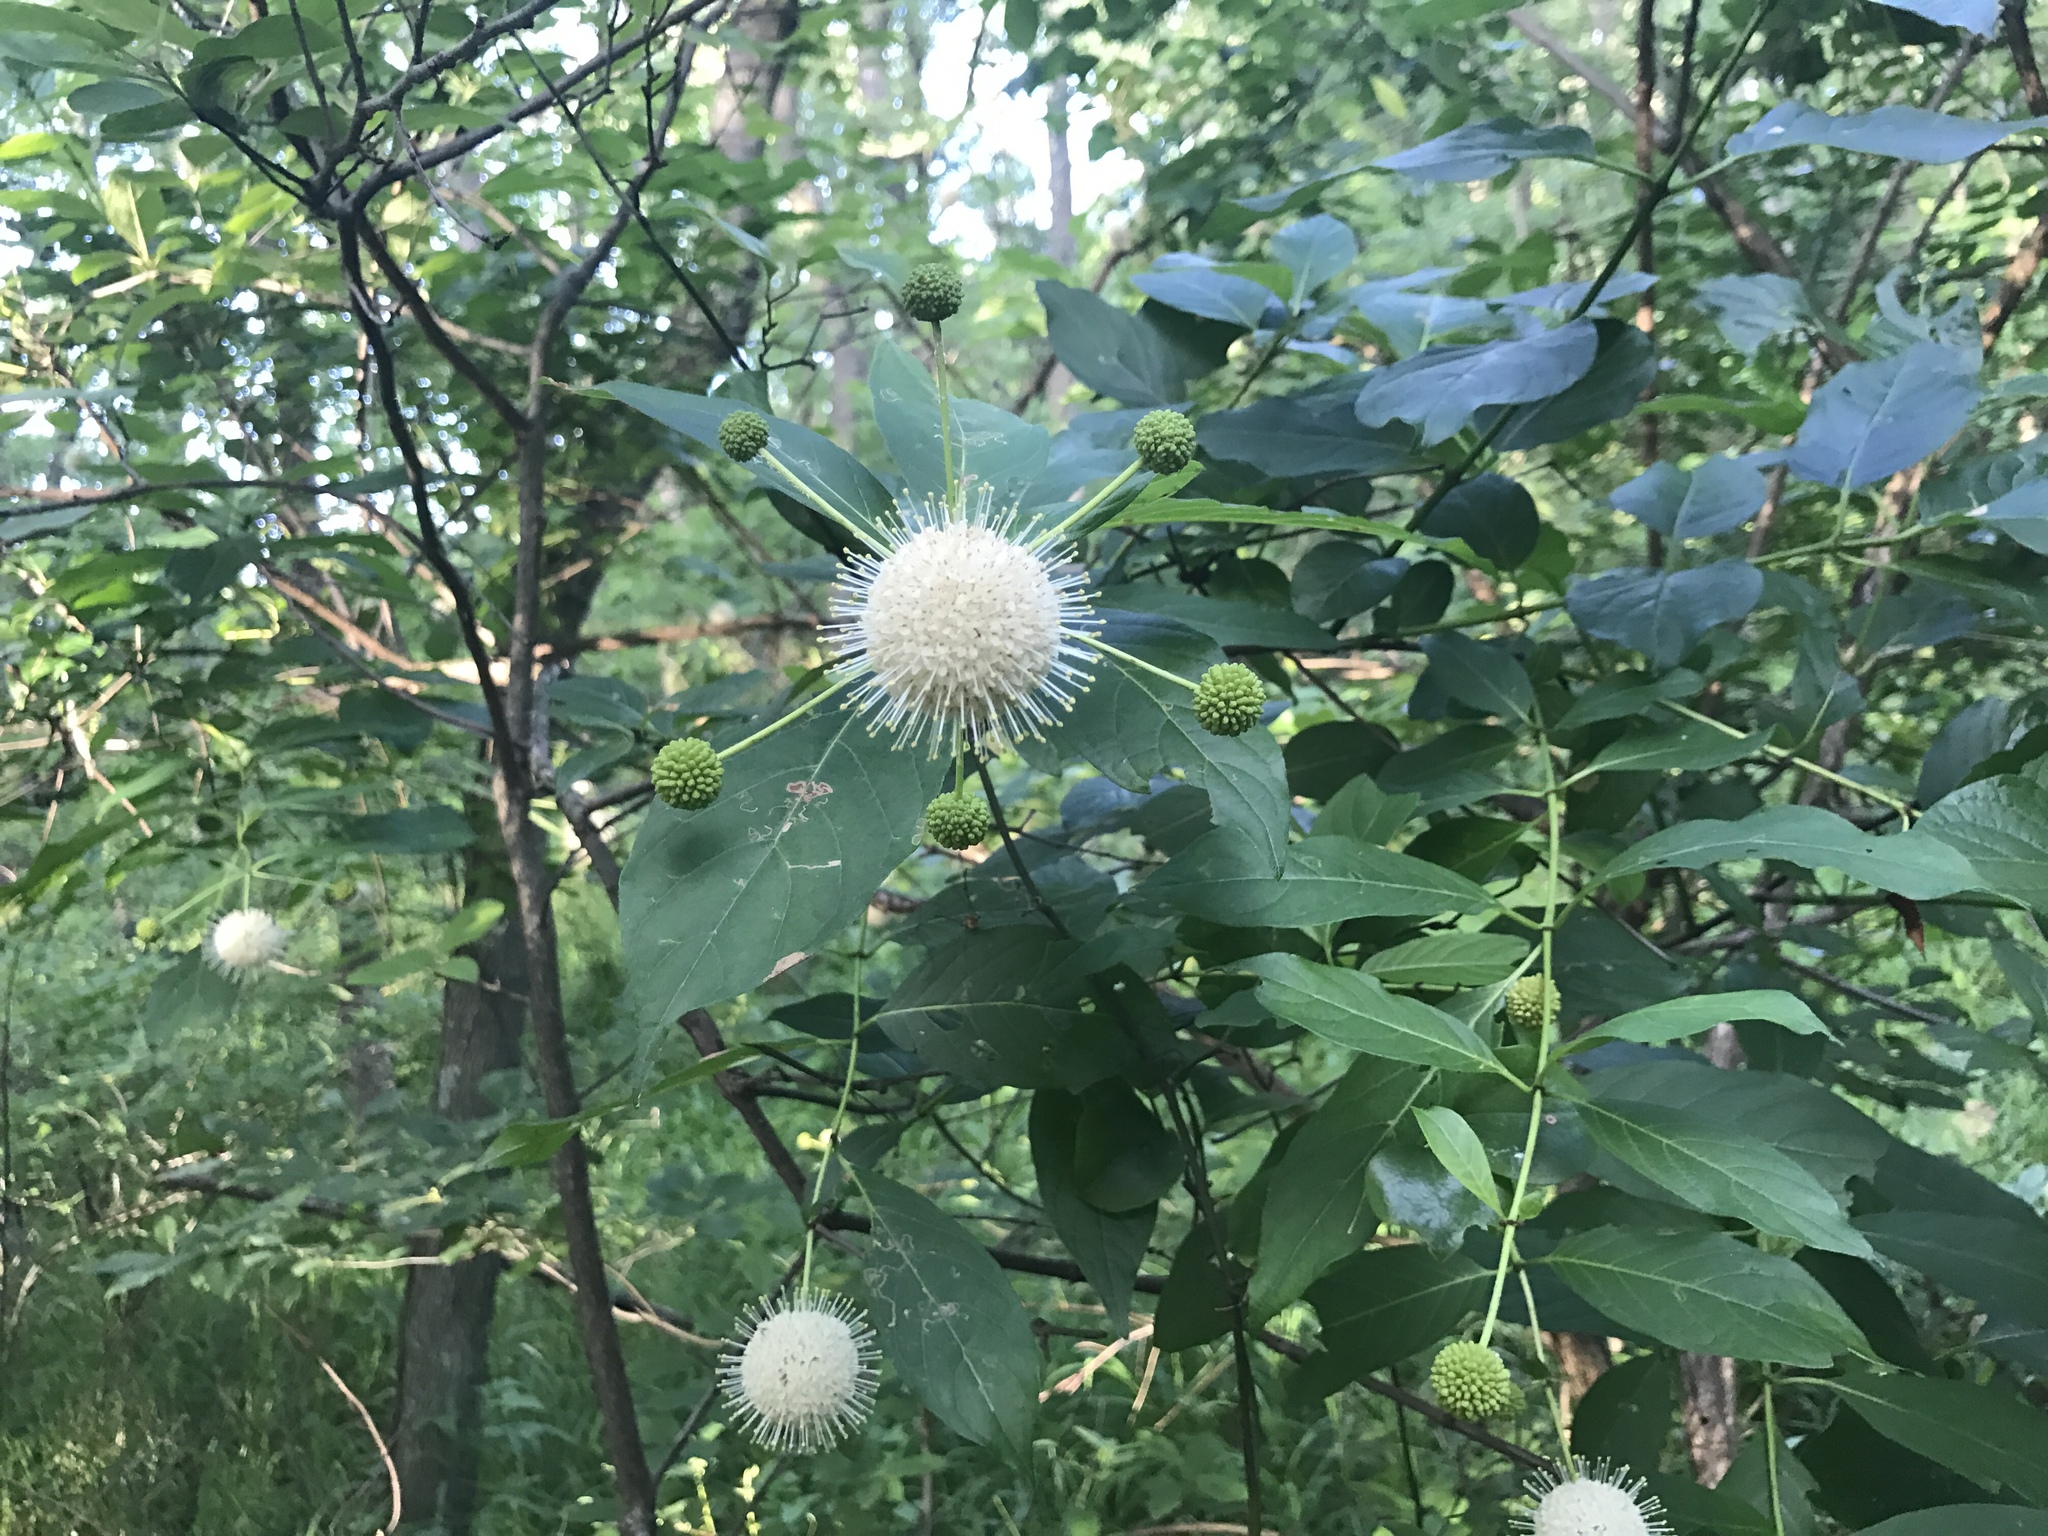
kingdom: Plantae
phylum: Tracheophyta
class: Magnoliopsida
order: Gentianales
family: Rubiaceae
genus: Cephalanthus
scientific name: Cephalanthus occidentalis
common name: Button-willow
